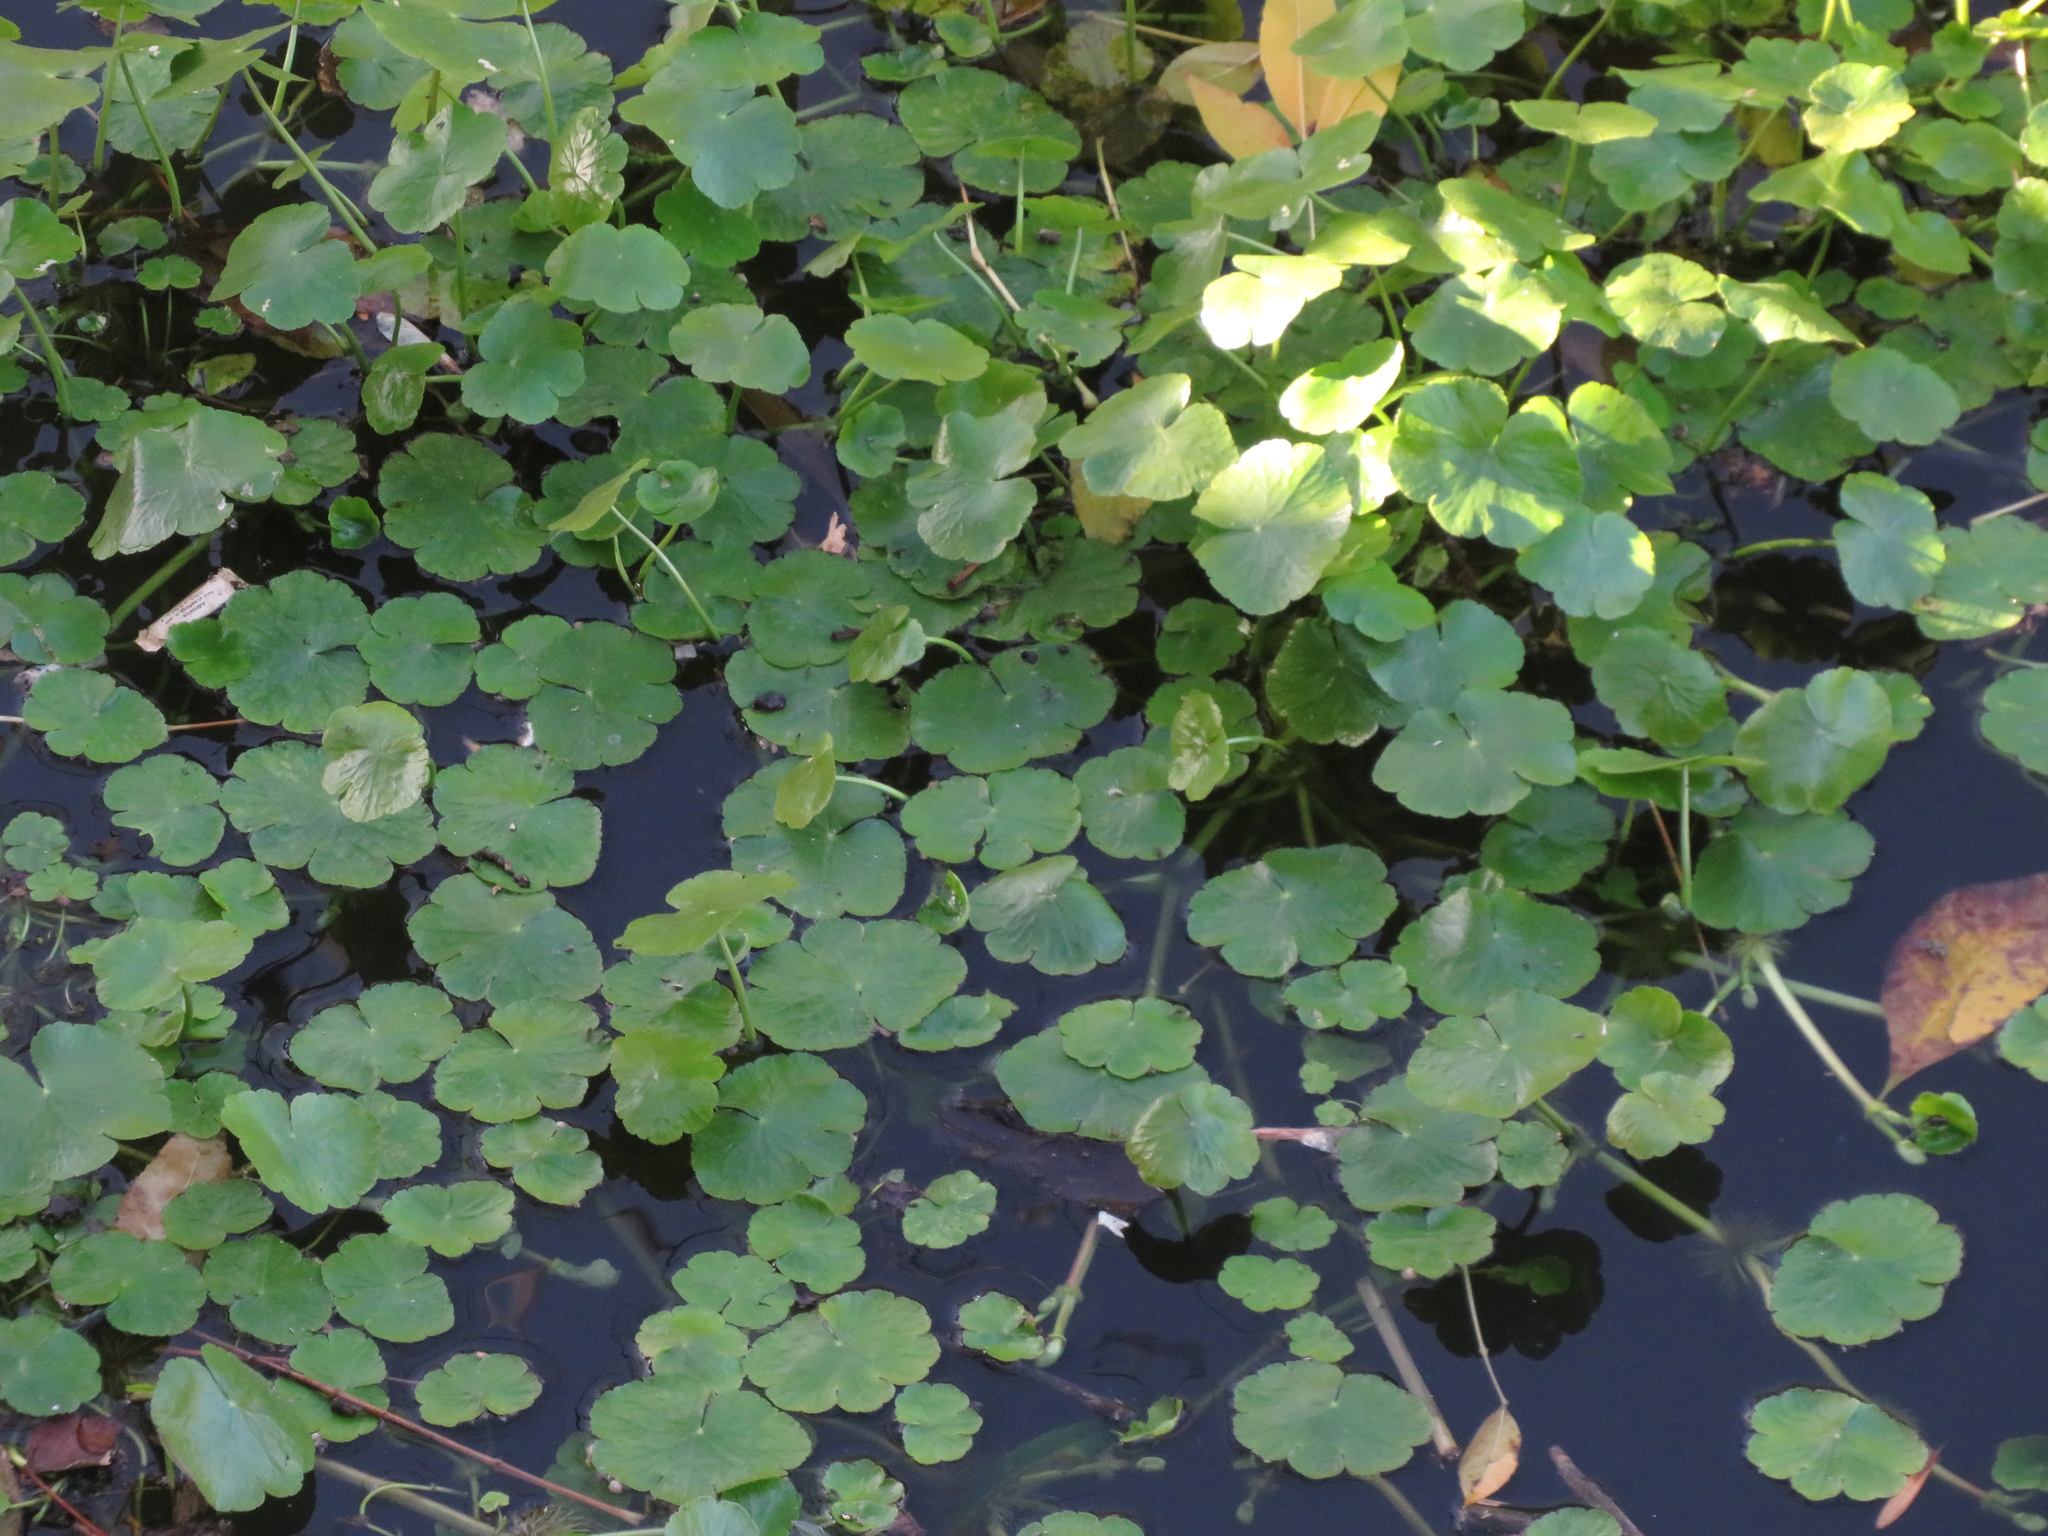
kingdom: Plantae
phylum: Tracheophyta
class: Magnoliopsida
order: Apiales
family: Araliaceae
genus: Hydrocotyle
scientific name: Hydrocotyle ranunculoides
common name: Floating pennywort
